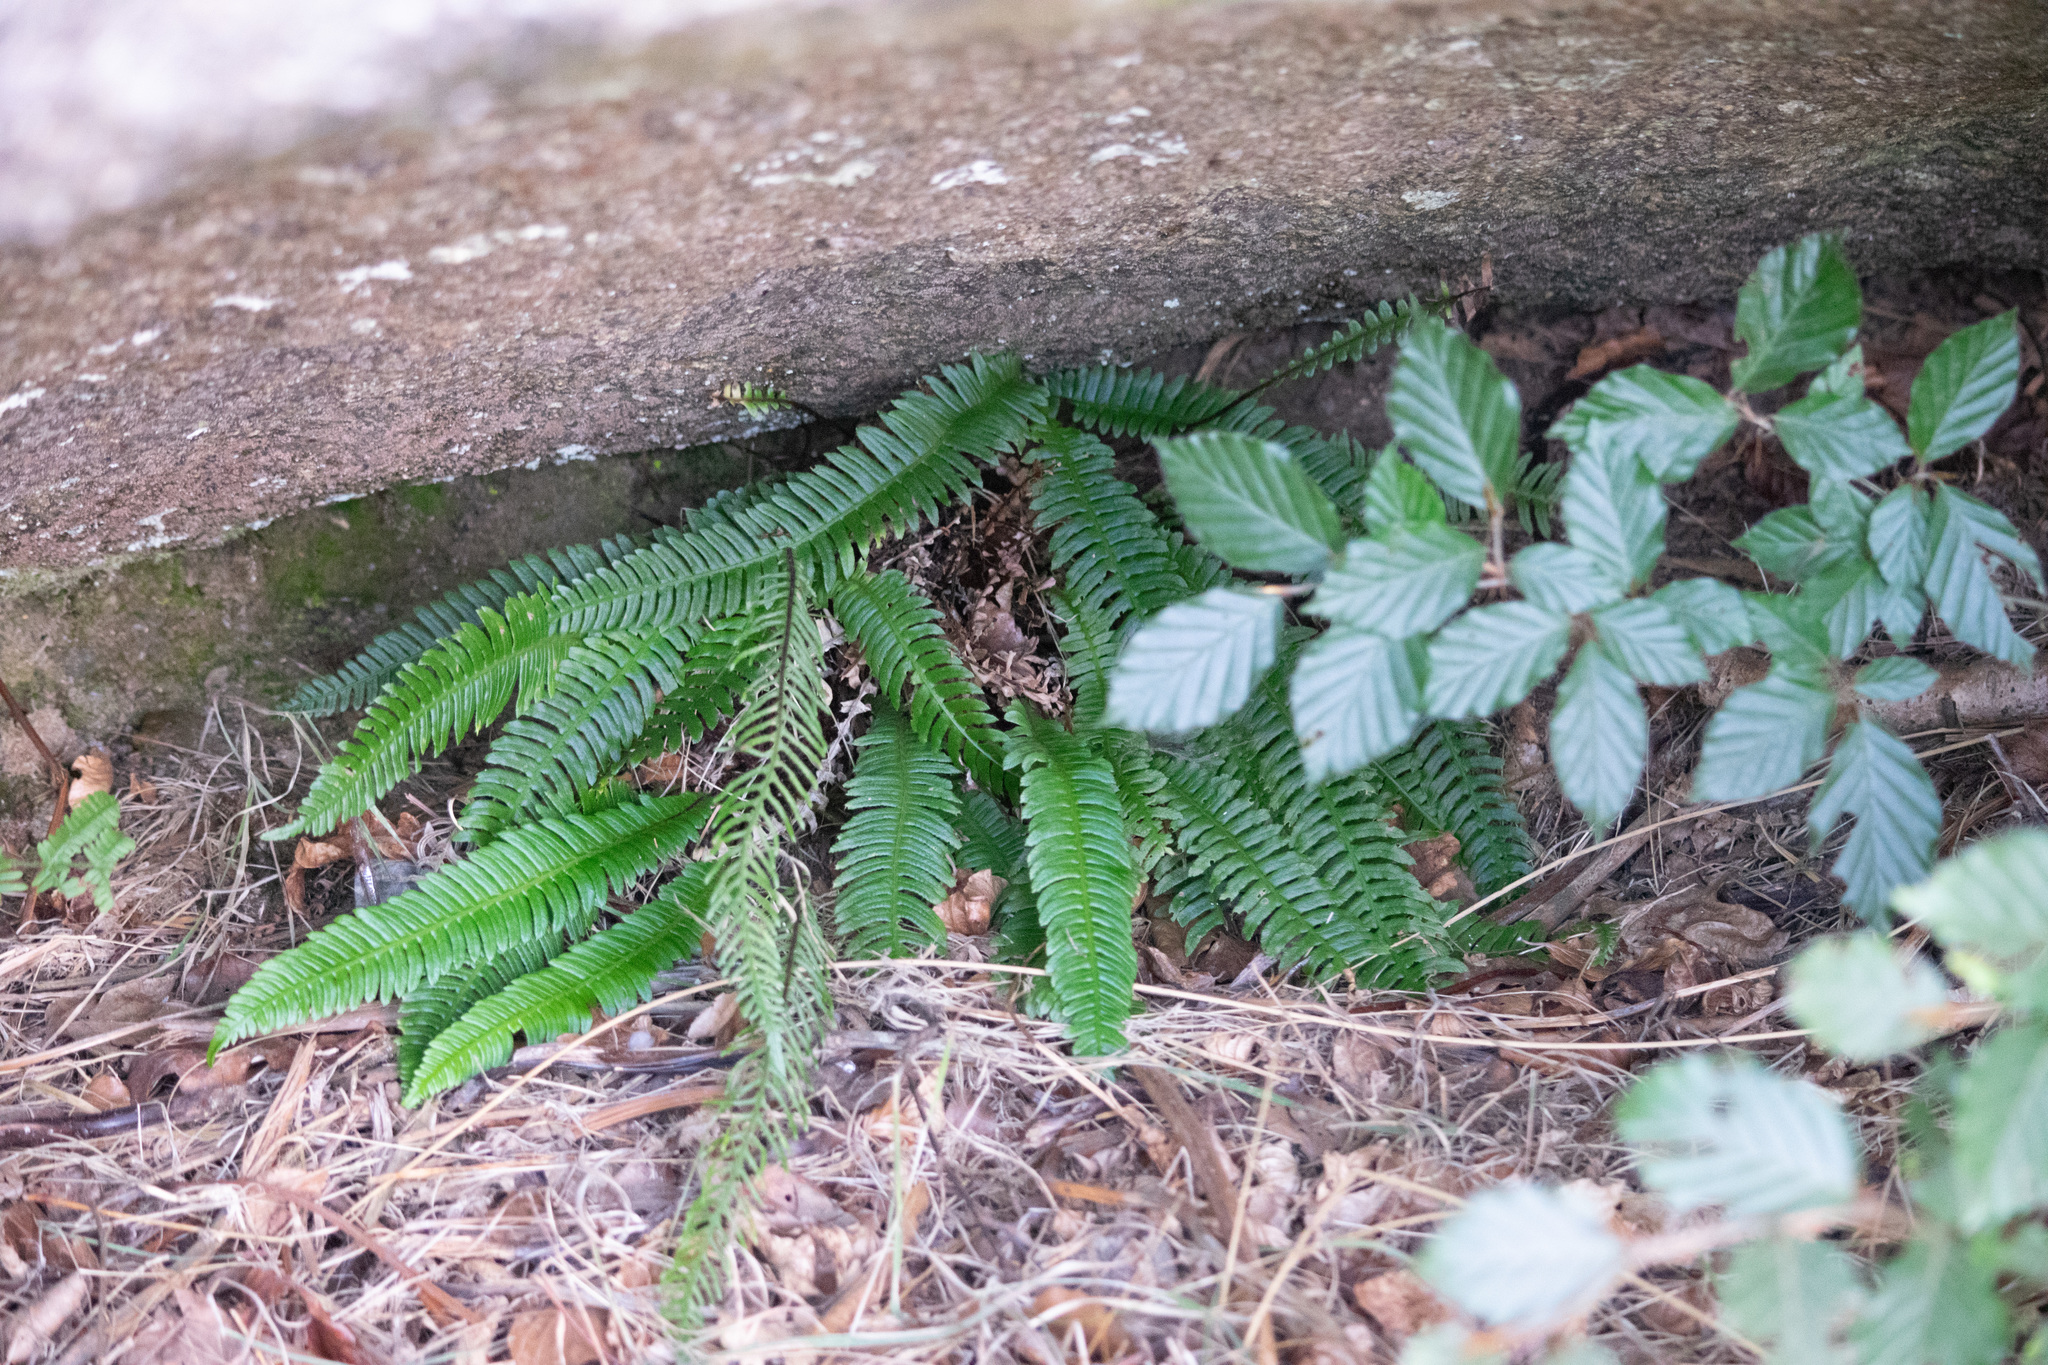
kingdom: Plantae
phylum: Tracheophyta
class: Polypodiopsida
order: Polypodiales
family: Blechnaceae
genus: Struthiopteris
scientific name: Struthiopteris spicant
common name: Deer fern
